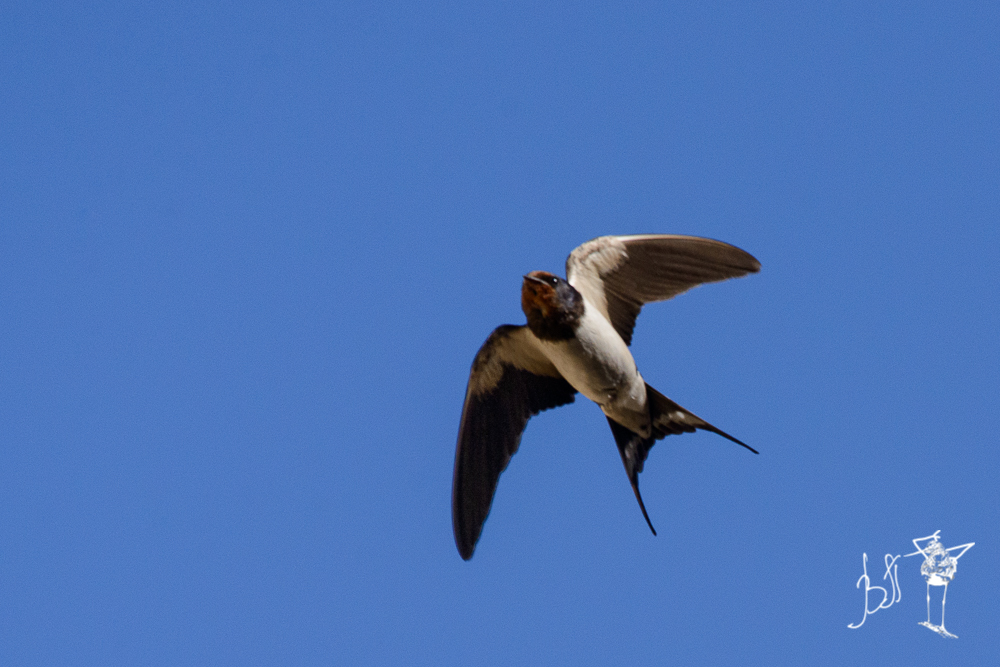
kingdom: Animalia
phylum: Chordata
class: Aves
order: Passeriformes
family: Hirundinidae
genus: Hirundo
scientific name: Hirundo rustica
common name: Barn swallow
